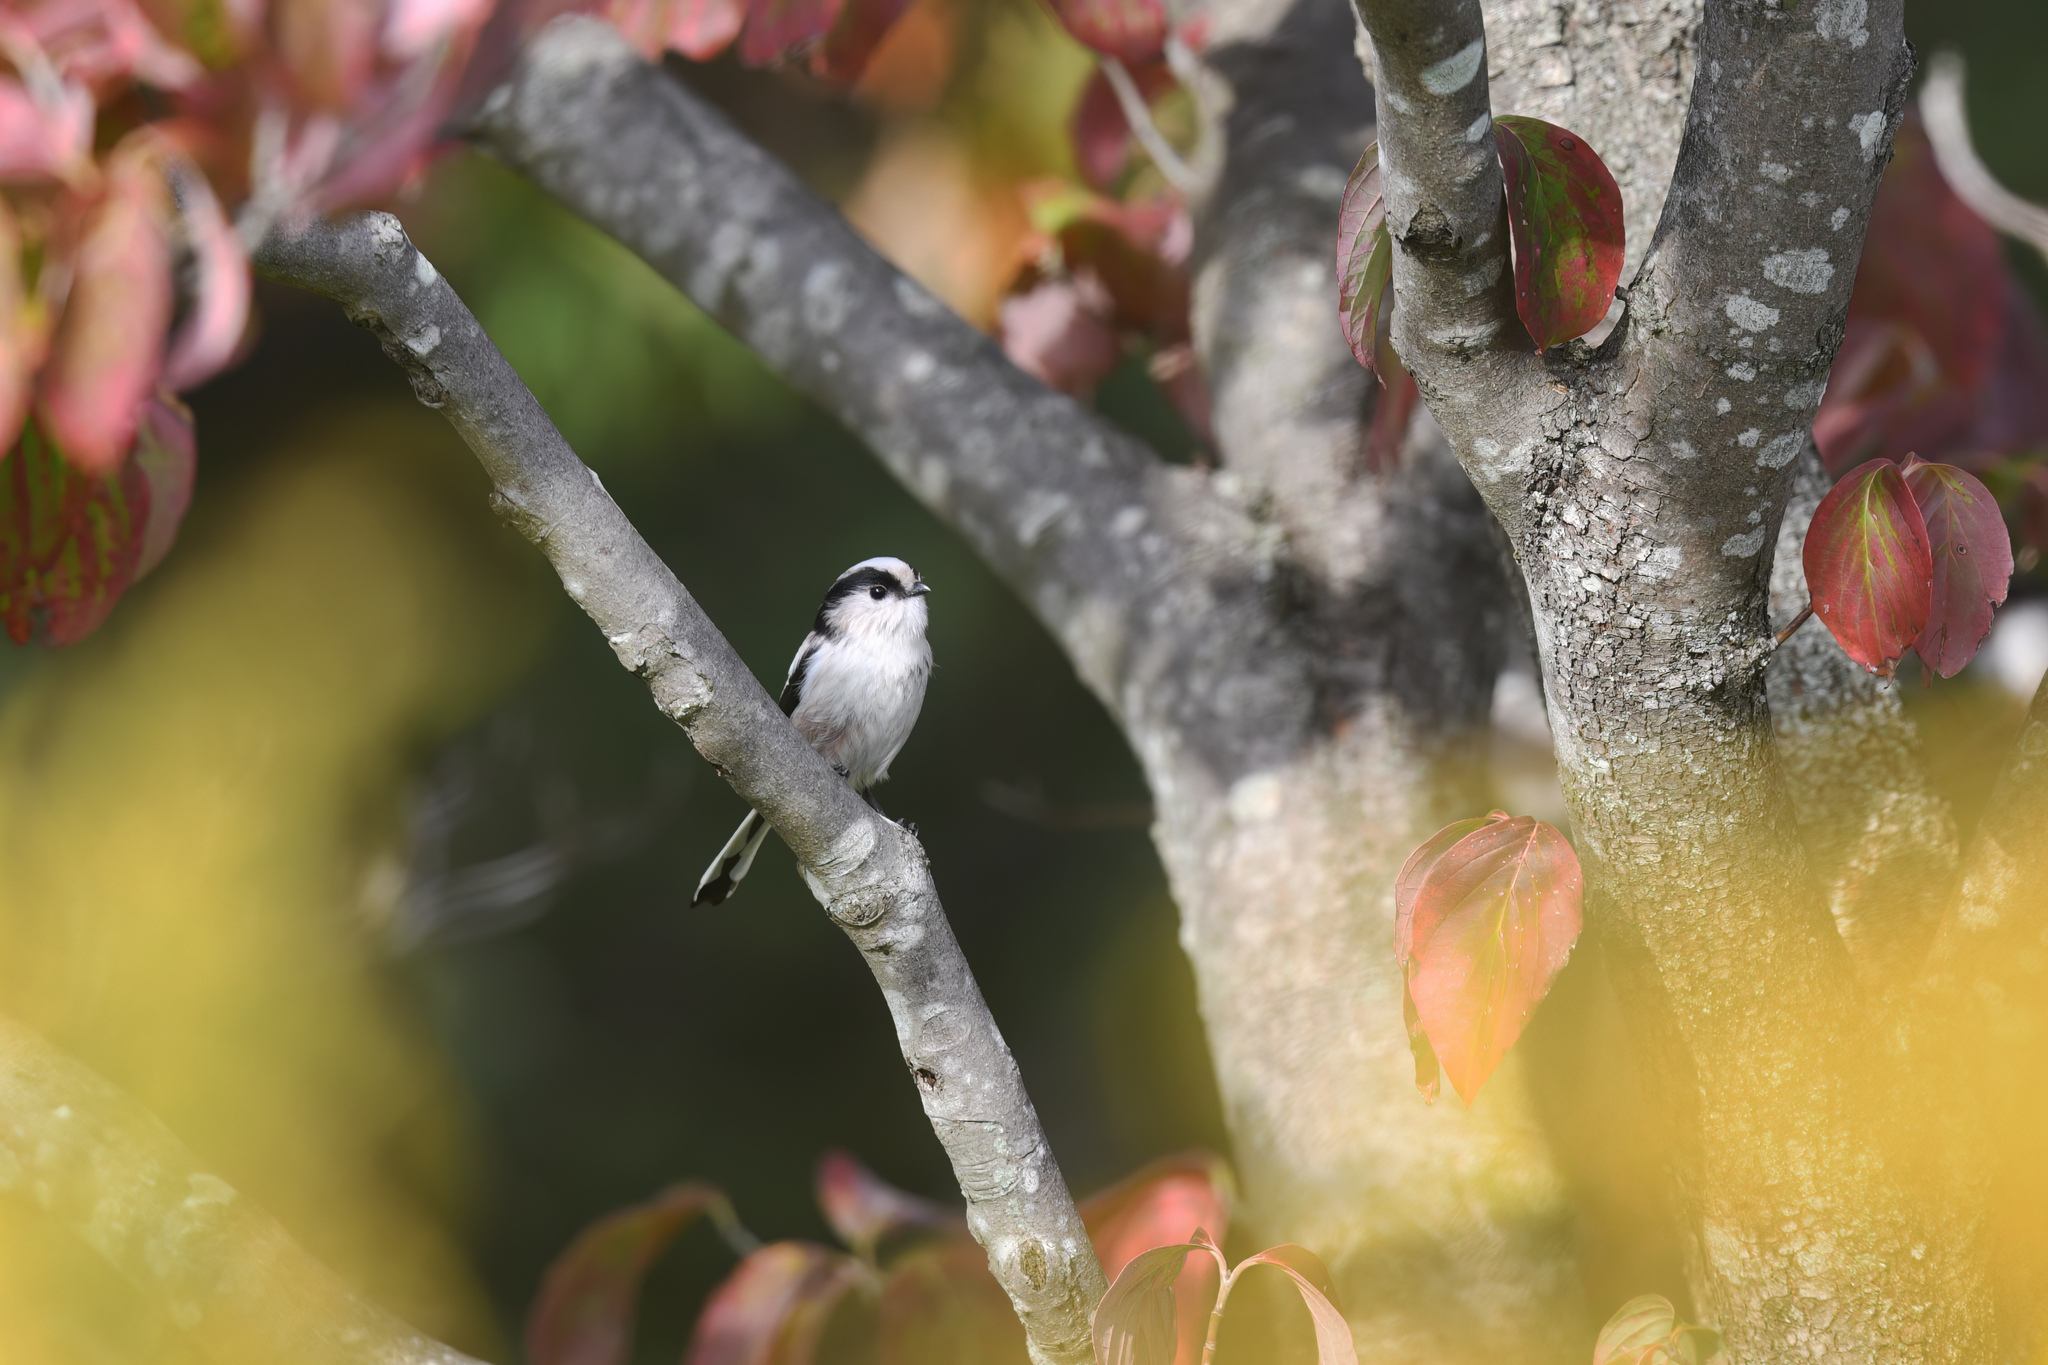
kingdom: Animalia
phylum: Chordata
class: Aves
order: Passeriformes
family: Aegithalidae
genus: Aegithalos
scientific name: Aegithalos caudatus
